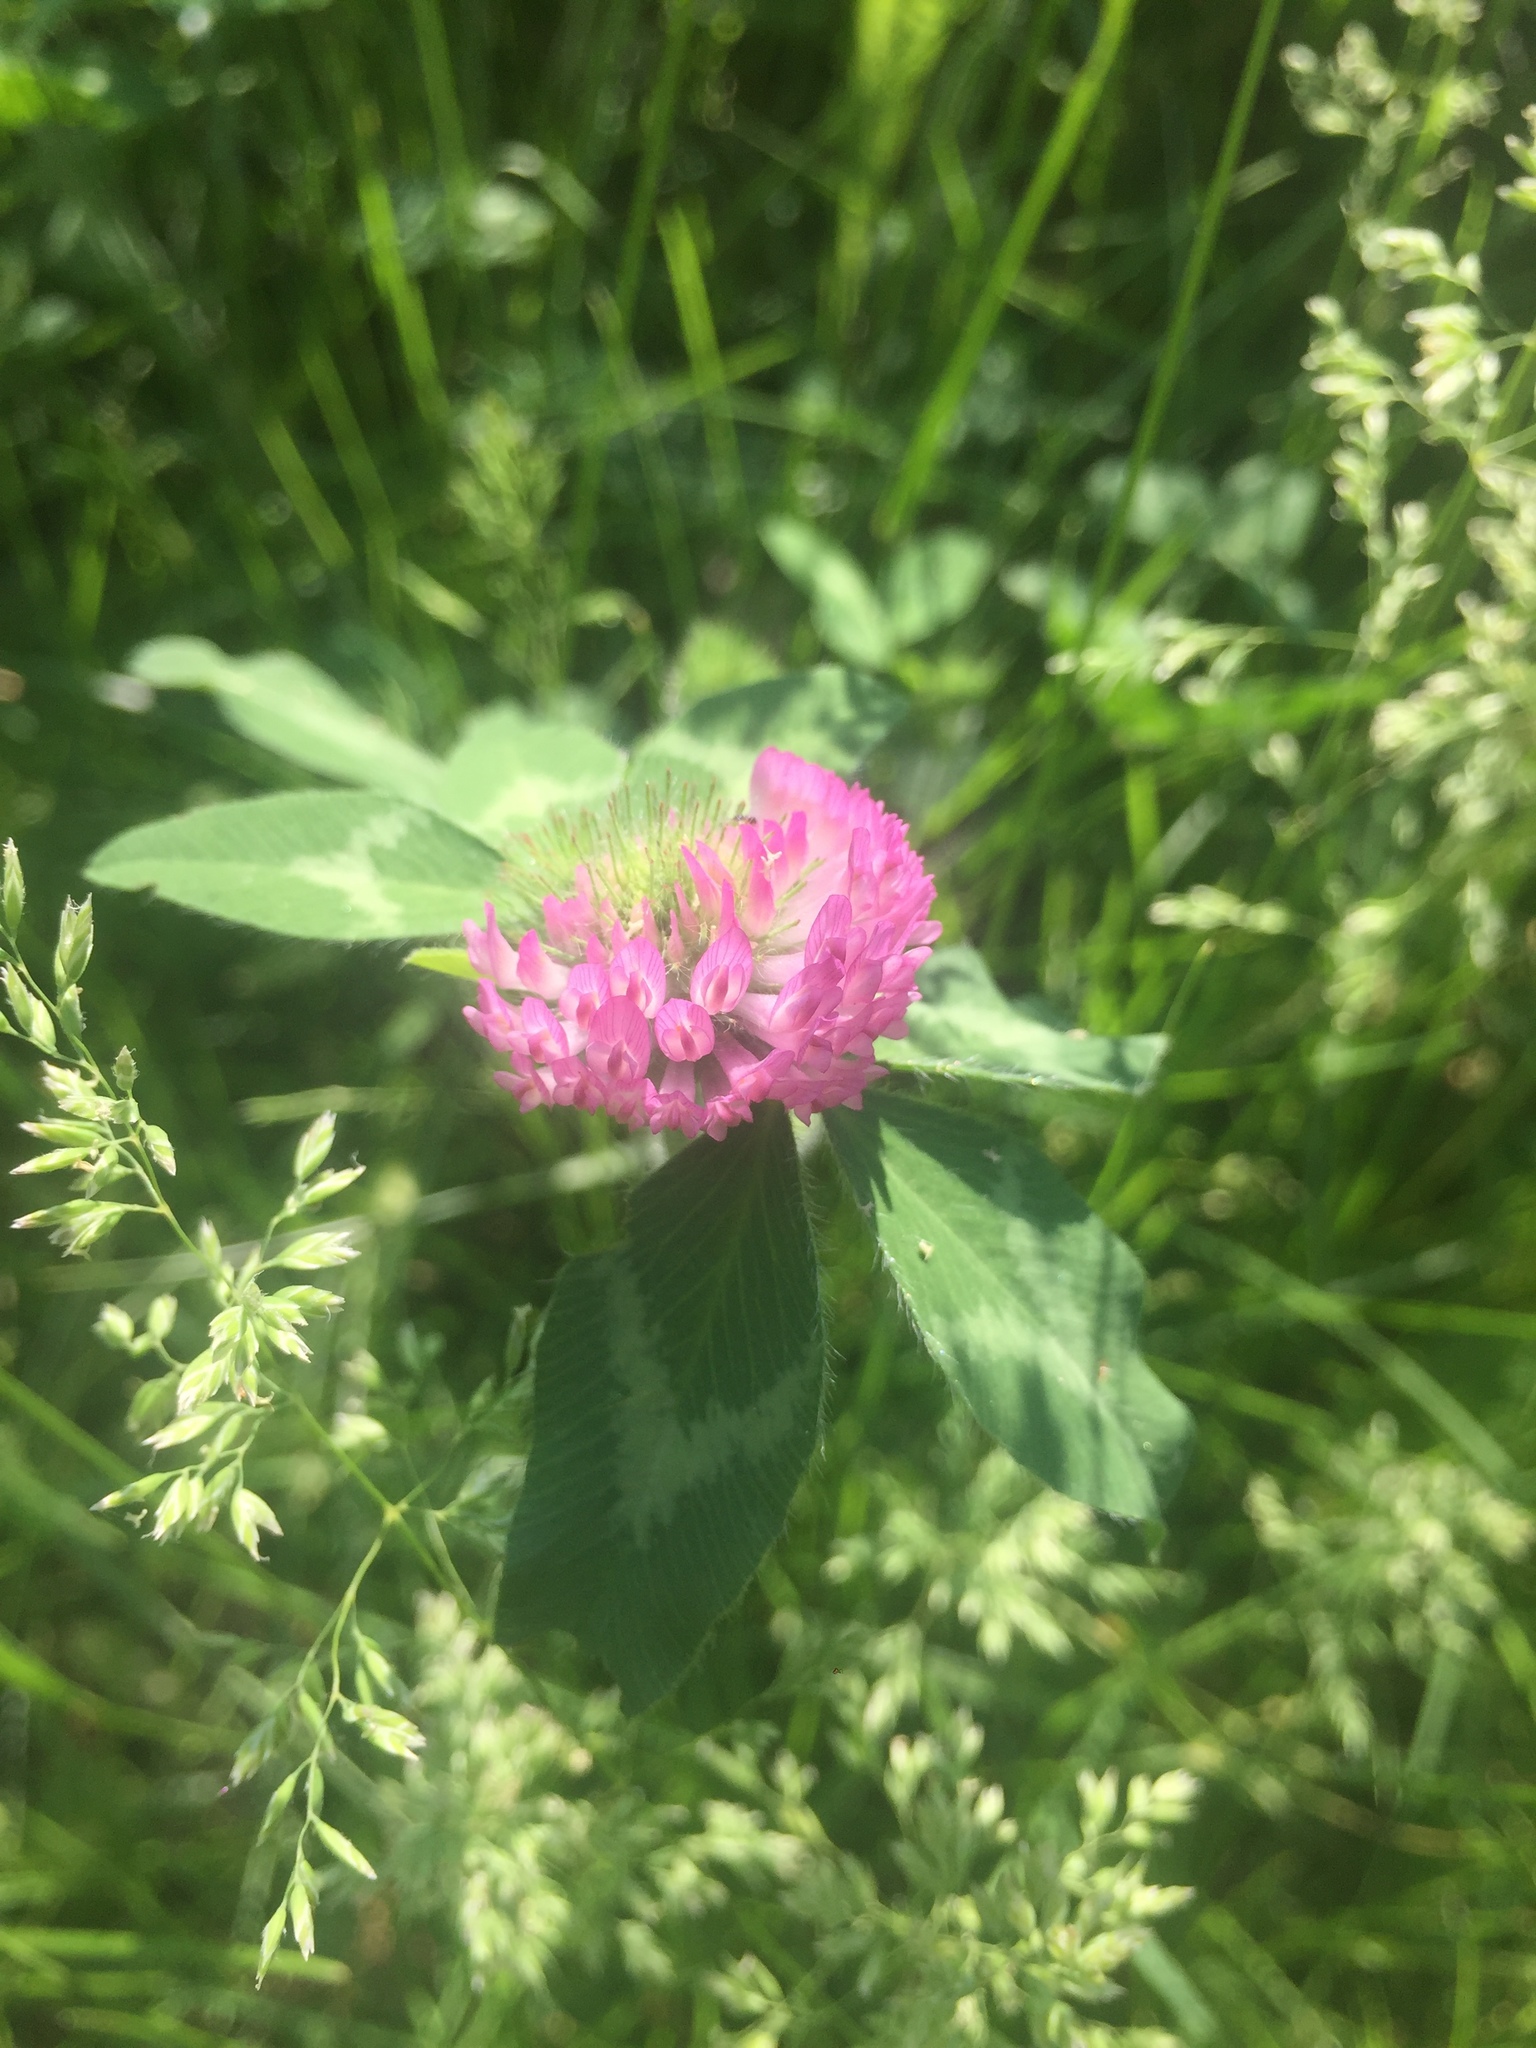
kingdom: Plantae
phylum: Tracheophyta
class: Magnoliopsida
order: Fabales
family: Fabaceae
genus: Trifolium
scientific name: Trifolium pratense
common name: Red clover
